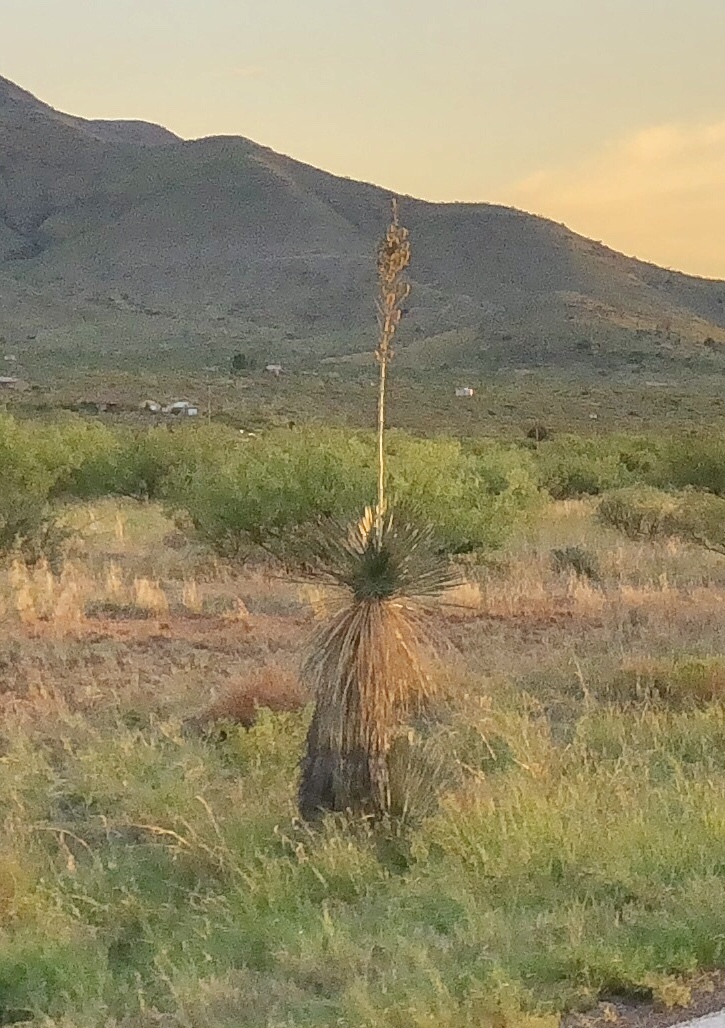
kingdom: Plantae
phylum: Tracheophyta
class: Liliopsida
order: Asparagales
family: Asparagaceae
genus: Yucca
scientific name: Yucca elata
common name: Palmella
